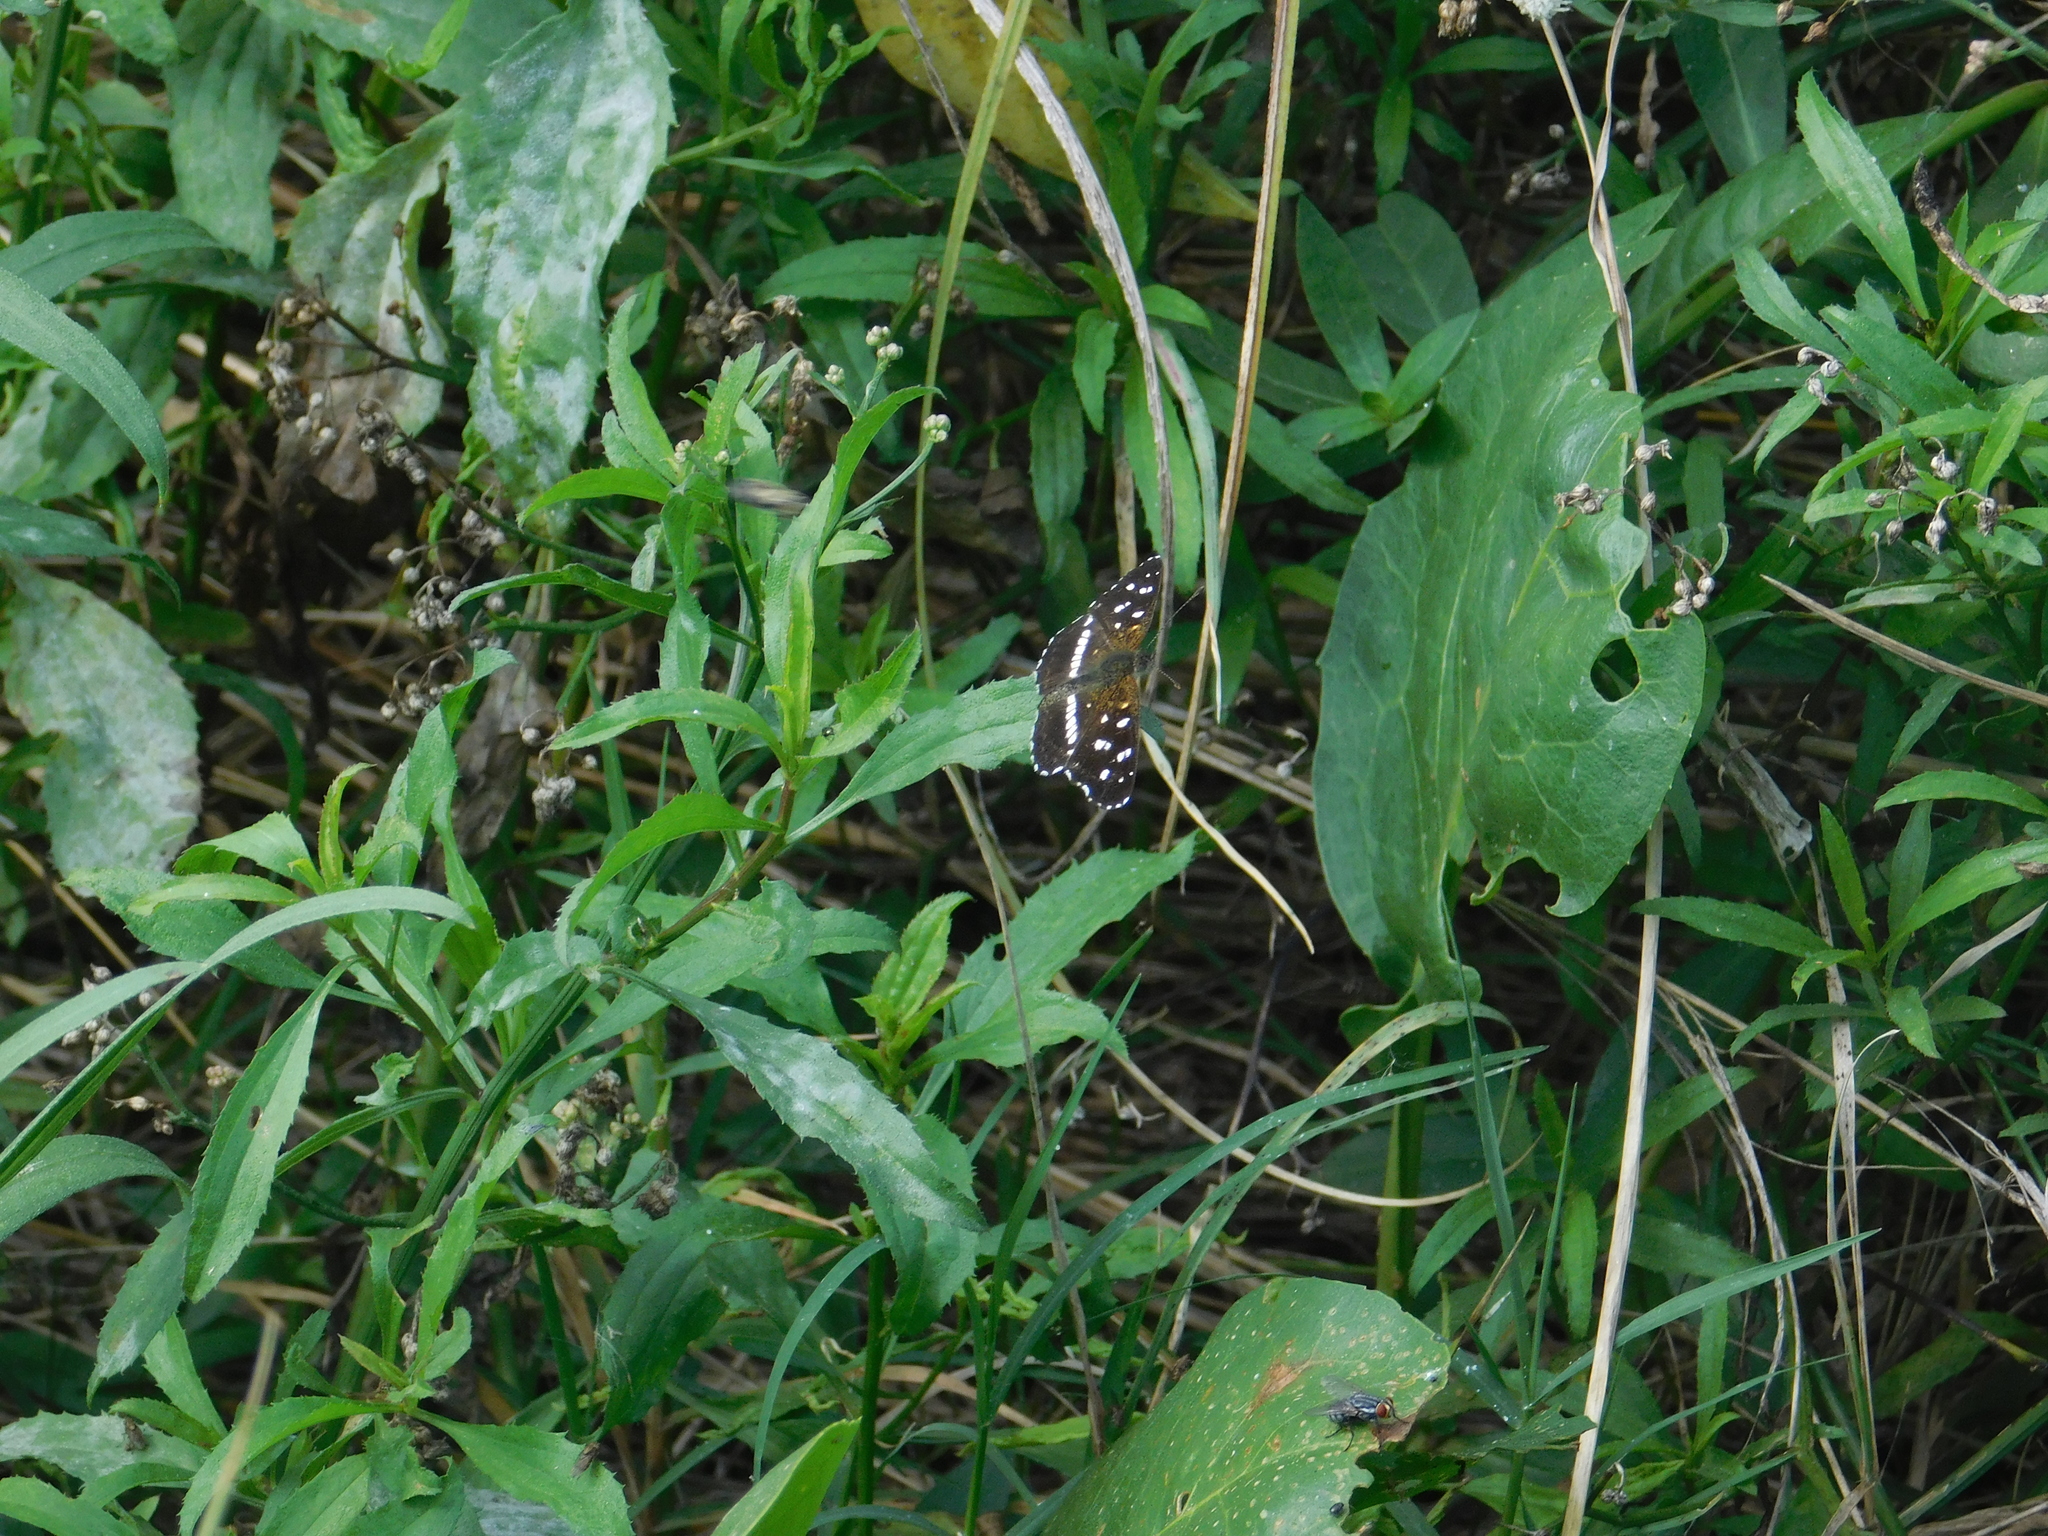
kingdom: Animalia
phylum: Arthropoda
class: Insecta
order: Lepidoptera
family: Nymphalidae
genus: Ortilia
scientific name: Ortilia ithra
